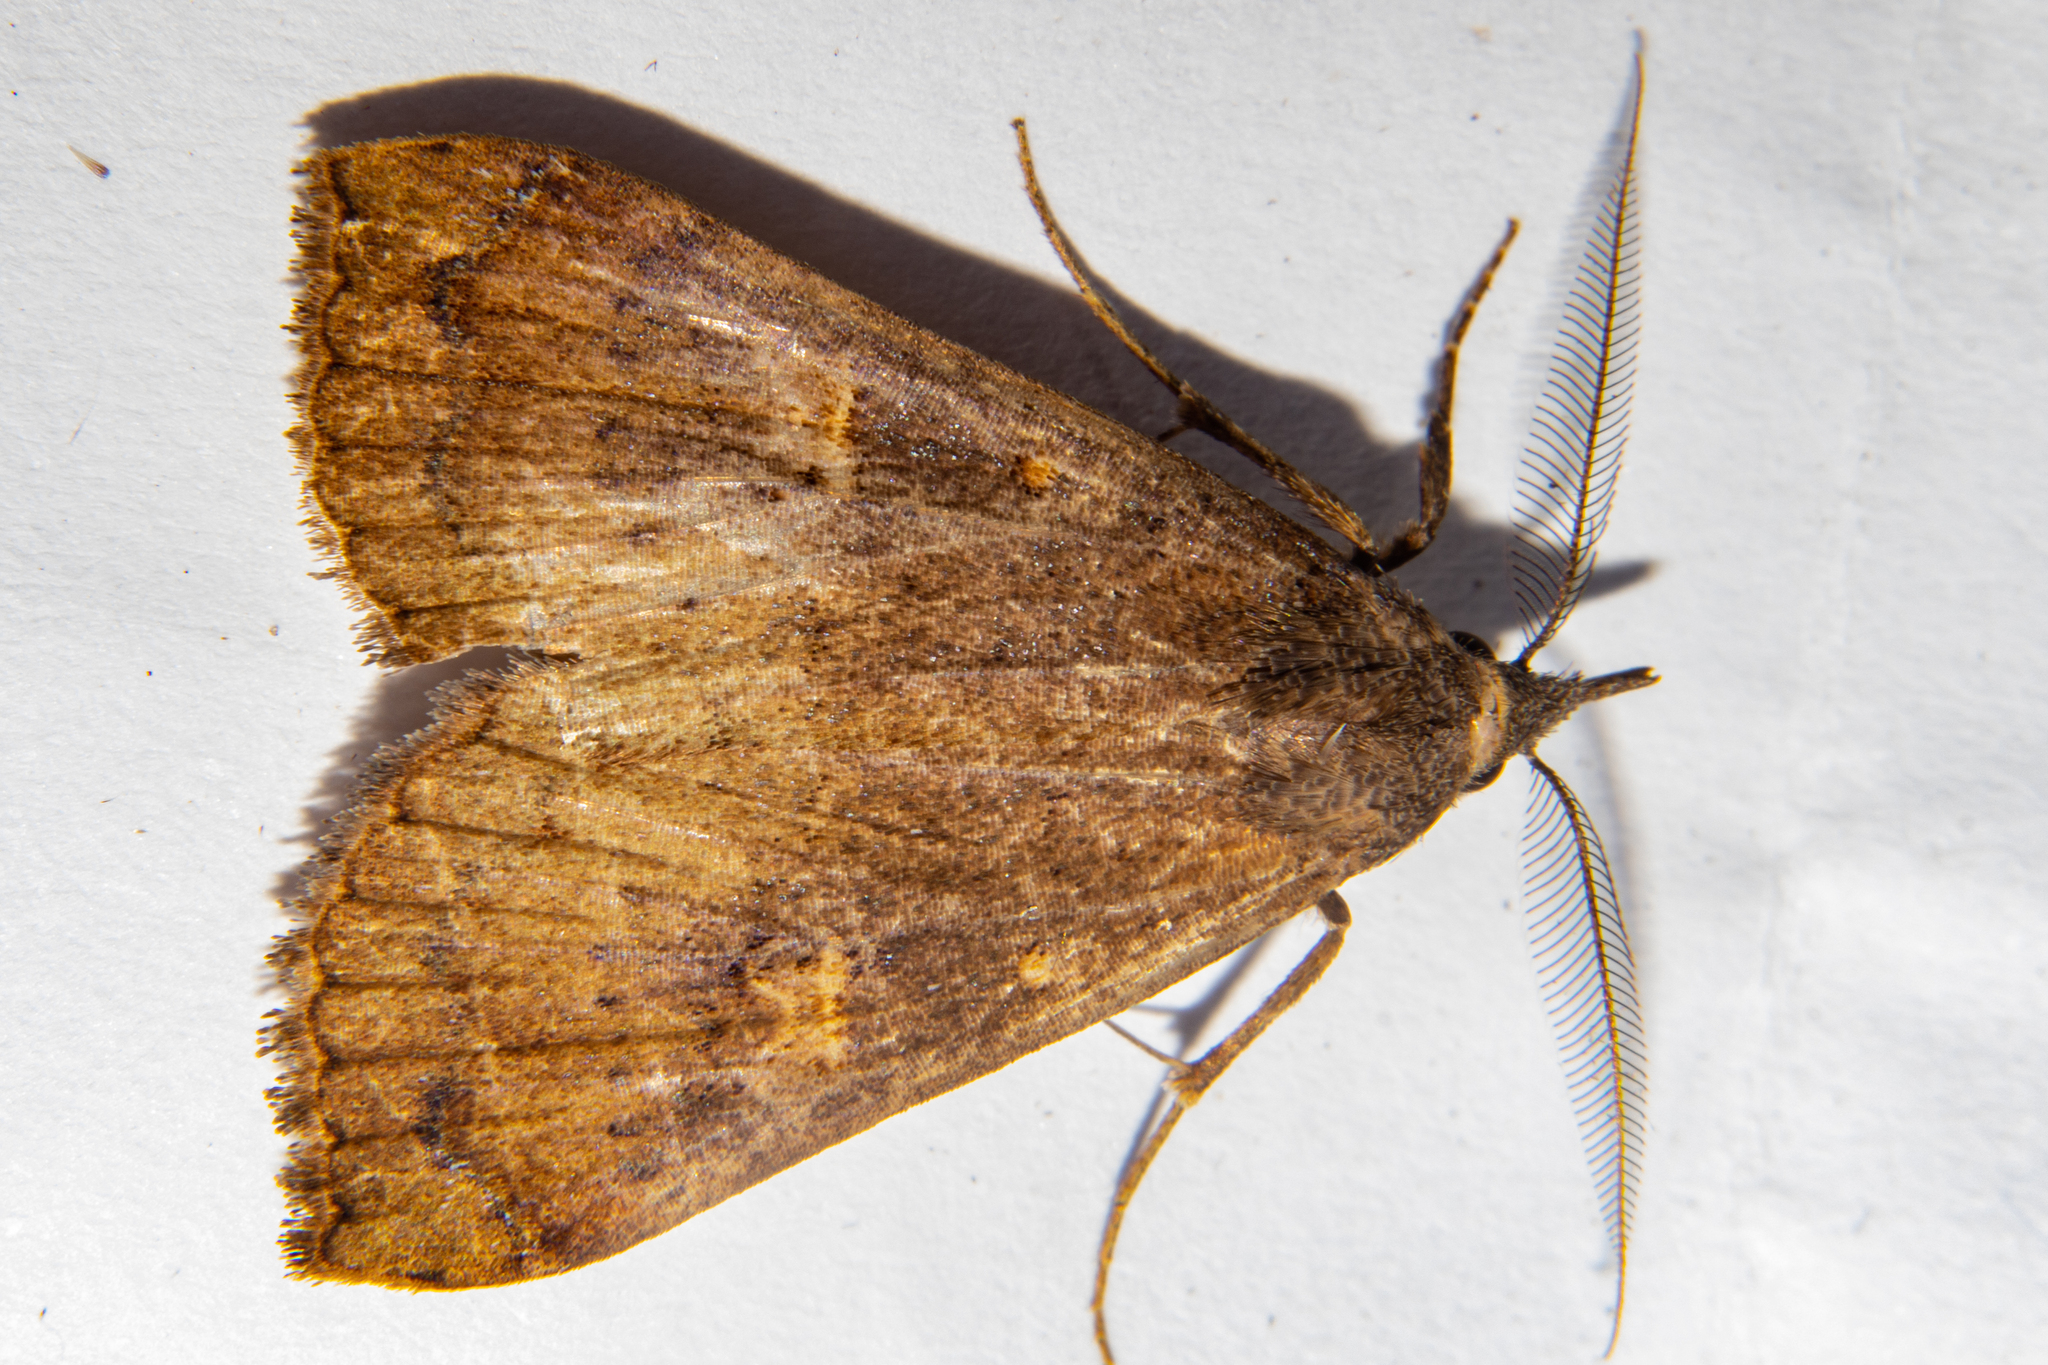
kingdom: Animalia
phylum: Arthropoda
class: Insecta
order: Lepidoptera
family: Erebidae
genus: Rhapsa
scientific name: Rhapsa scotosialis
